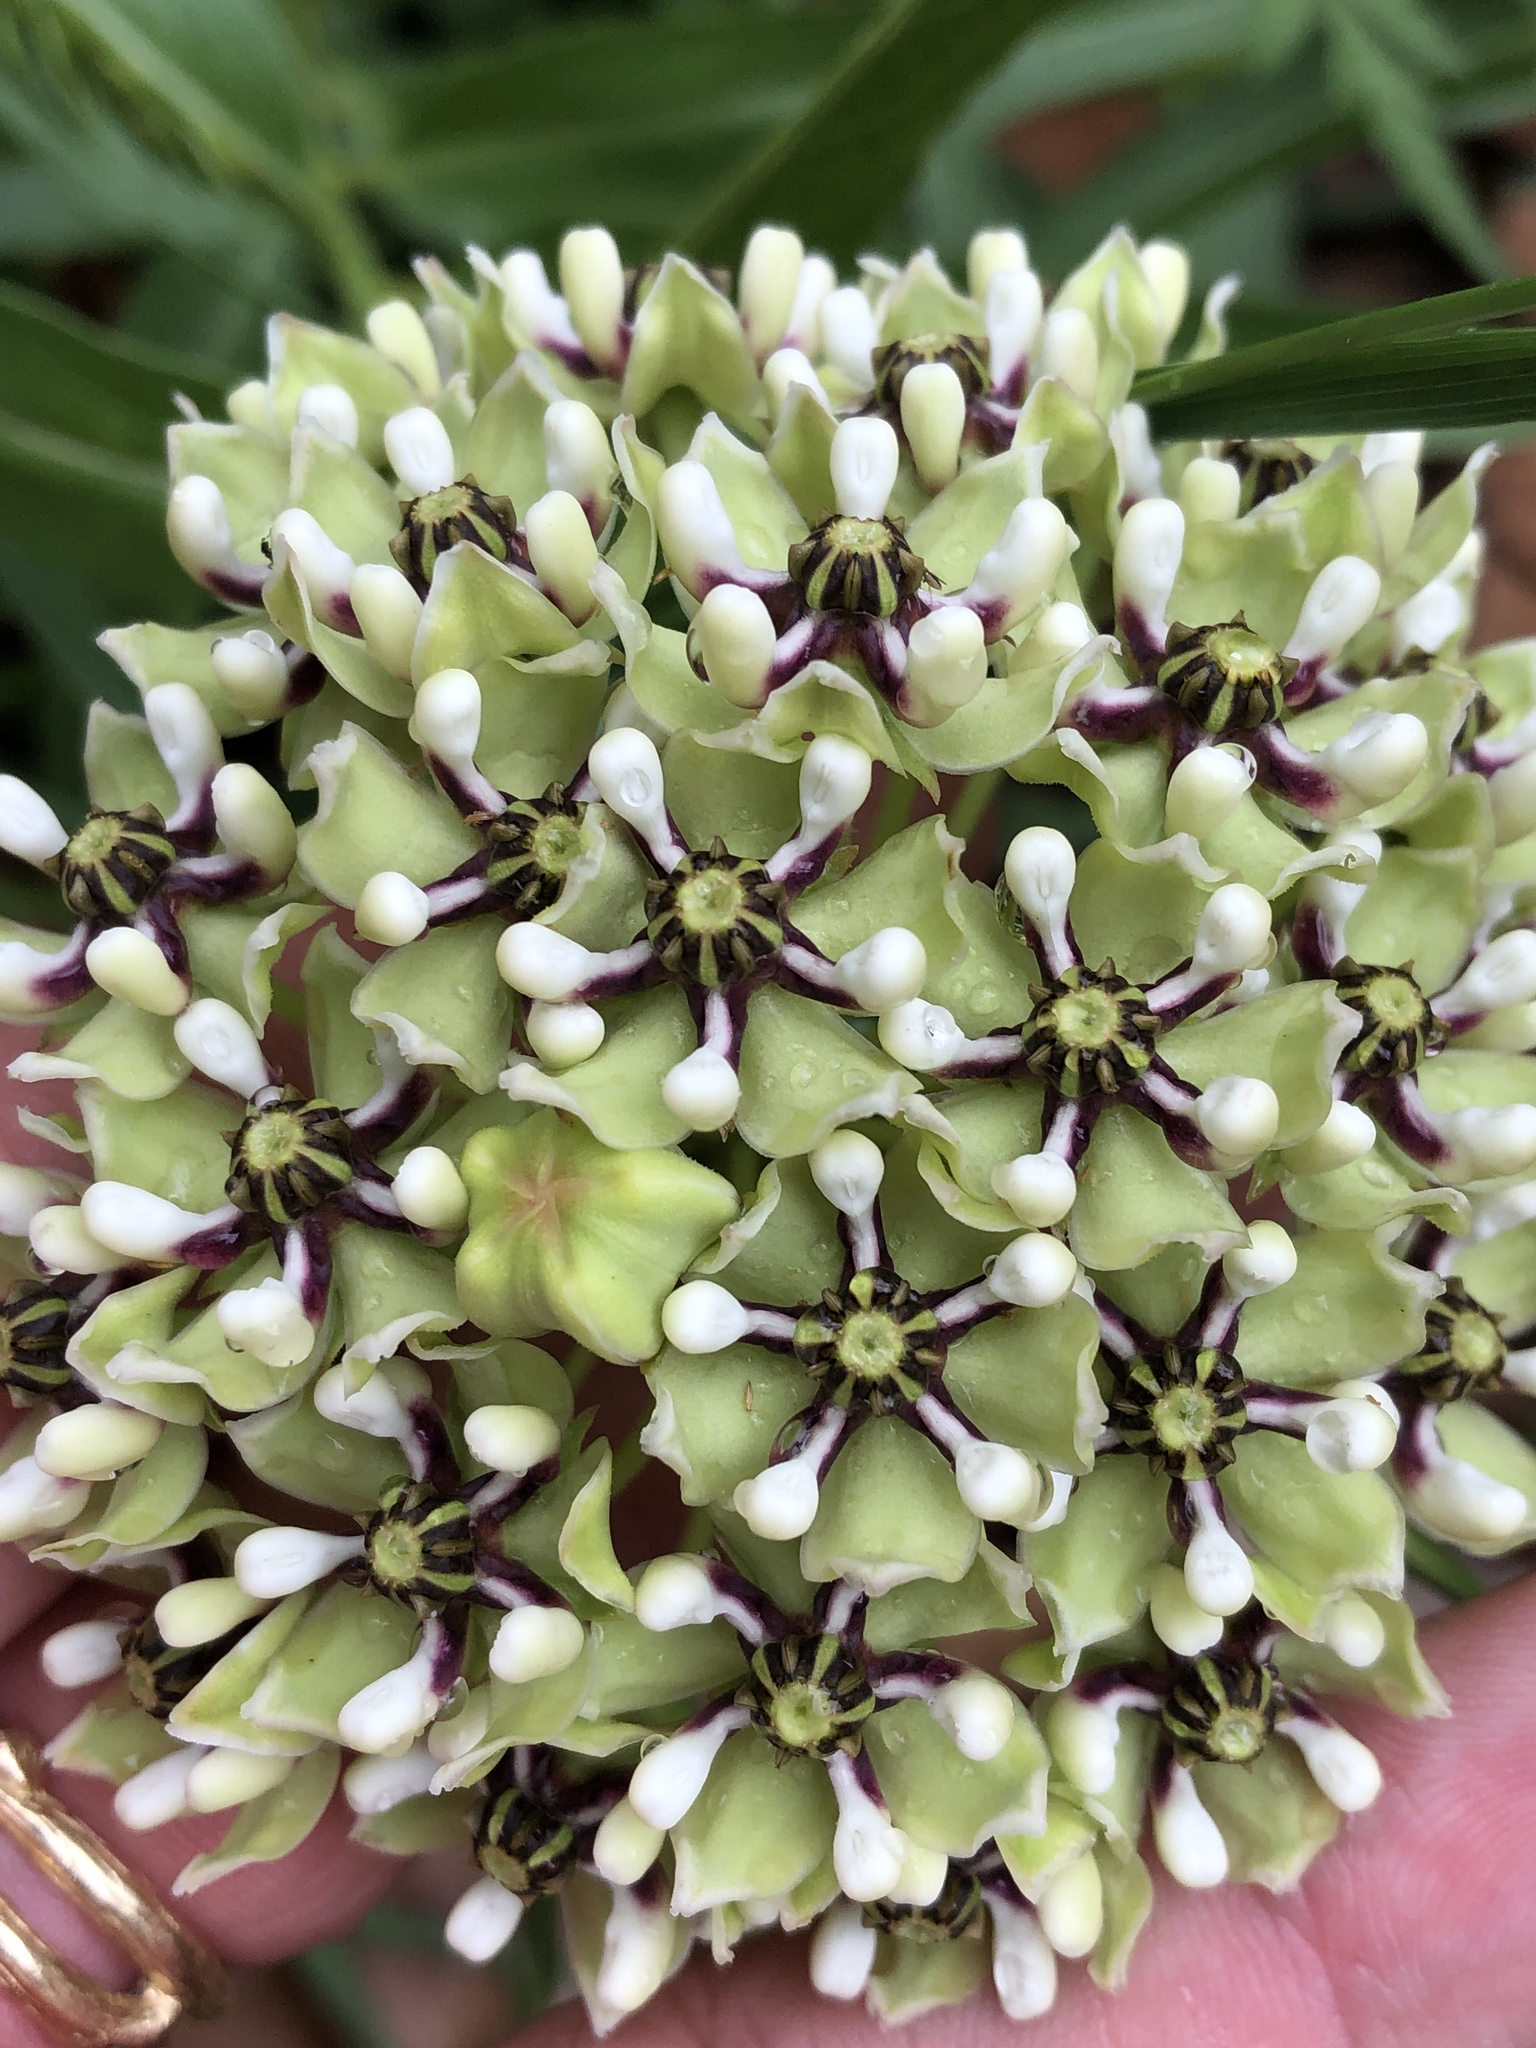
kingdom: Plantae
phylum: Tracheophyta
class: Magnoliopsida
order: Gentianales
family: Apocynaceae
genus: Asclepias
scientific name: Asclepias asperula
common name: Antelope horns
